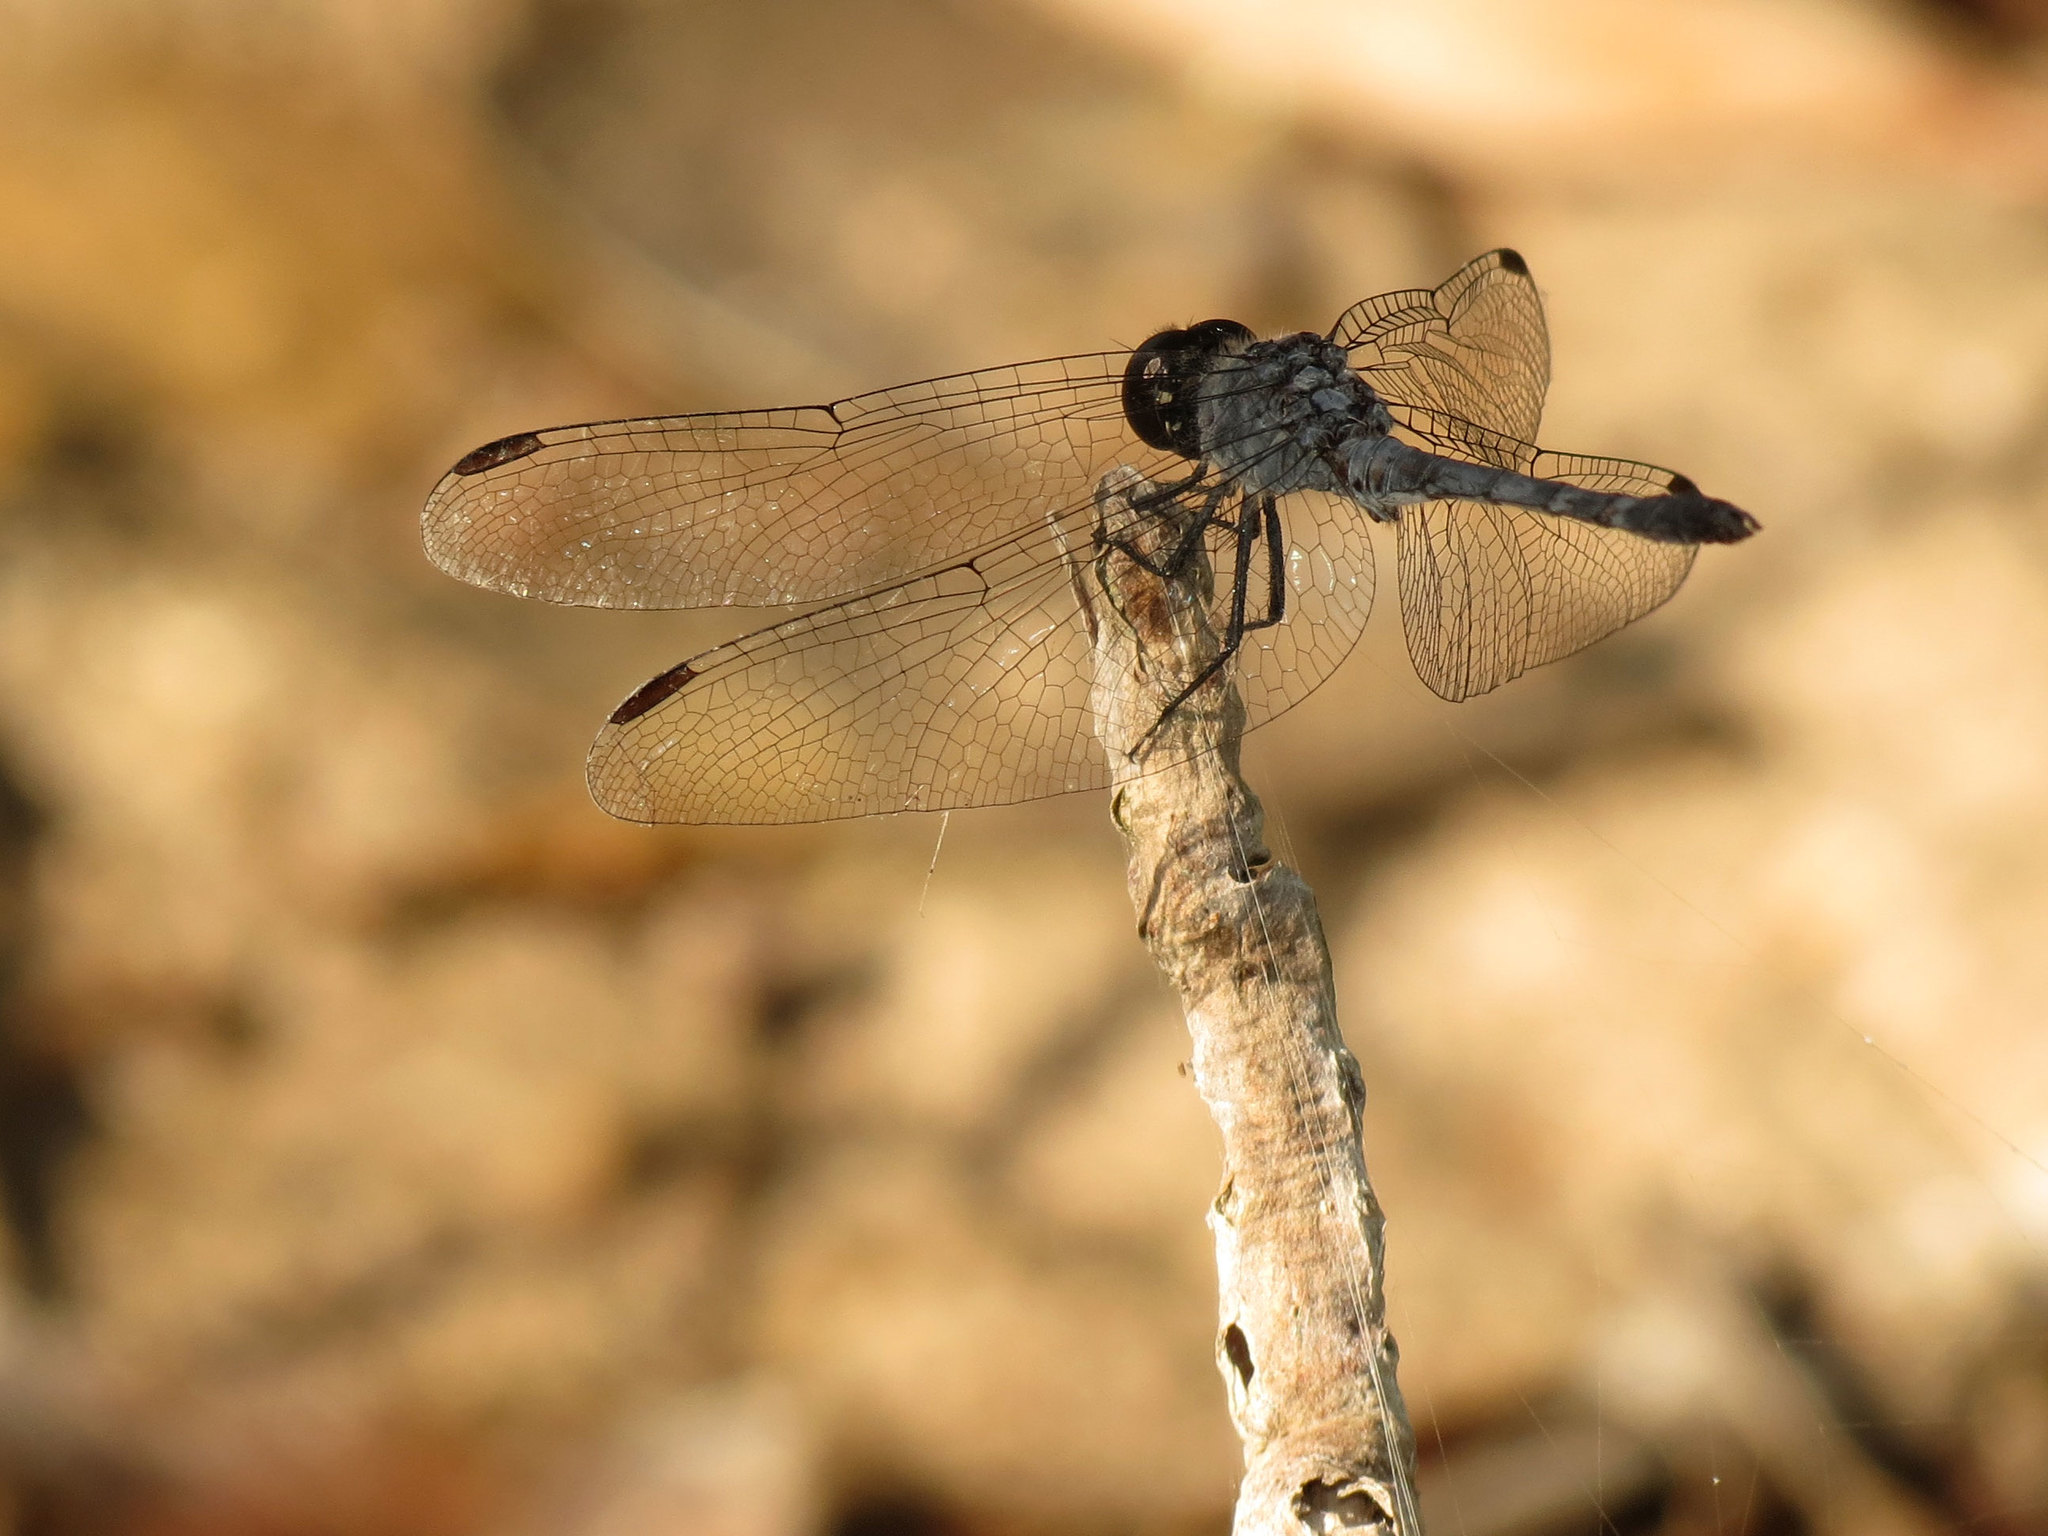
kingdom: Animalia
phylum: Arthropoda
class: Insecta
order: Odonata
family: Libellulidae
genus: Erythrodiplax
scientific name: Erythrodiplax berenice
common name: Seaside dragonlet
